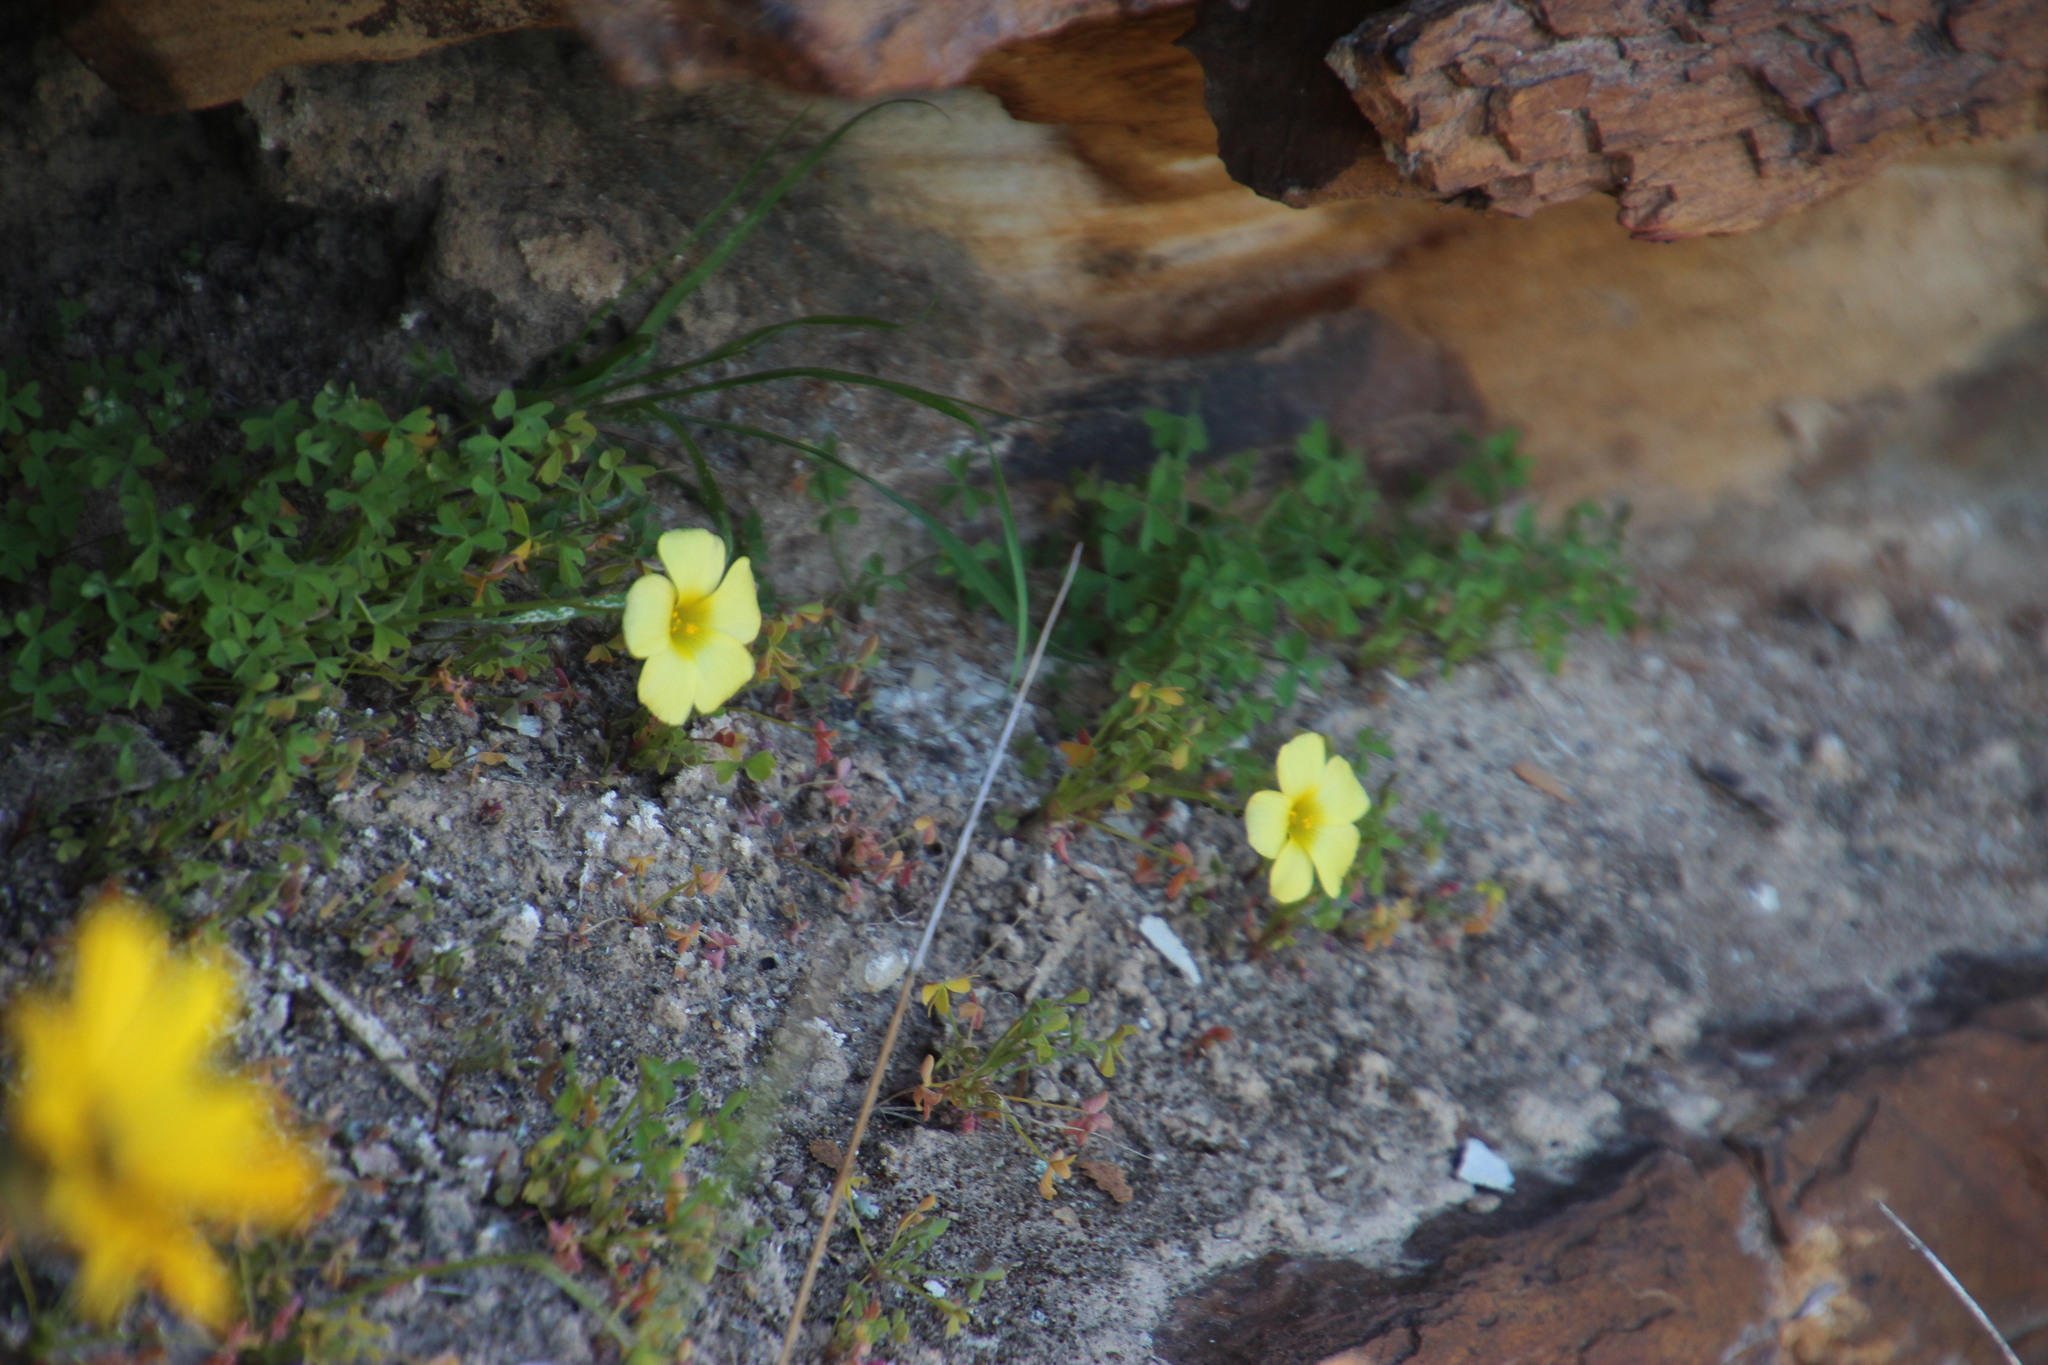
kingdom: Plantae
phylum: Tracheophyta
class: Magnoliopsida
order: Oxalidales
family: Oxalidaceae
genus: Oxalis
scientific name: Oxalis obtusa
